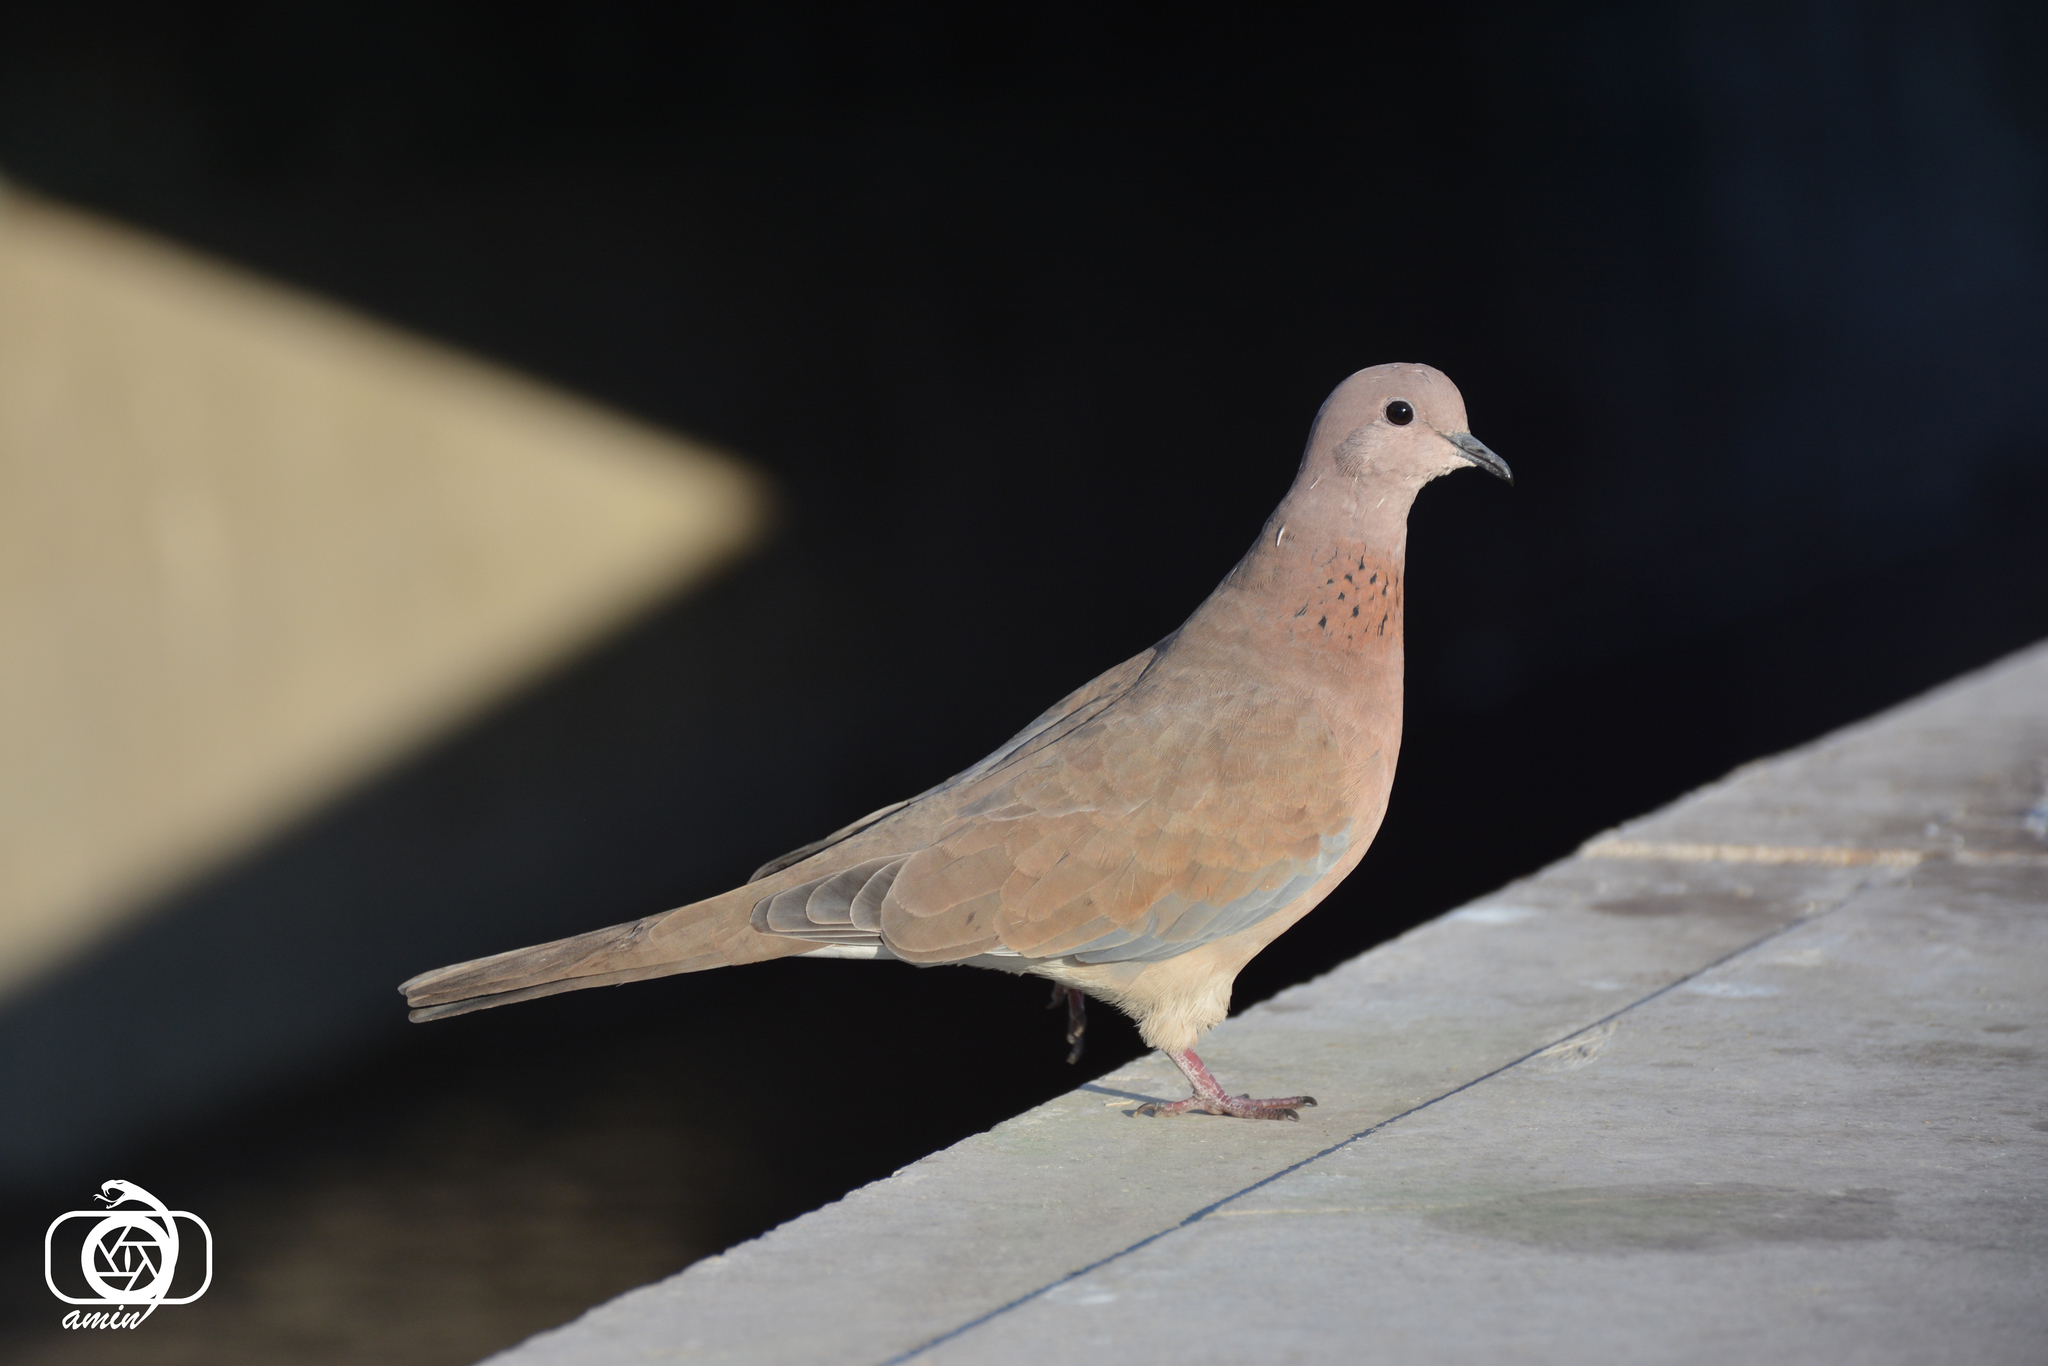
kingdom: Animalia
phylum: Chordata
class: Aves
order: Columbiformes
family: Columbidae
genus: Spilopelia
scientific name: Spilopelia senegalensis
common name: Laughing dove
